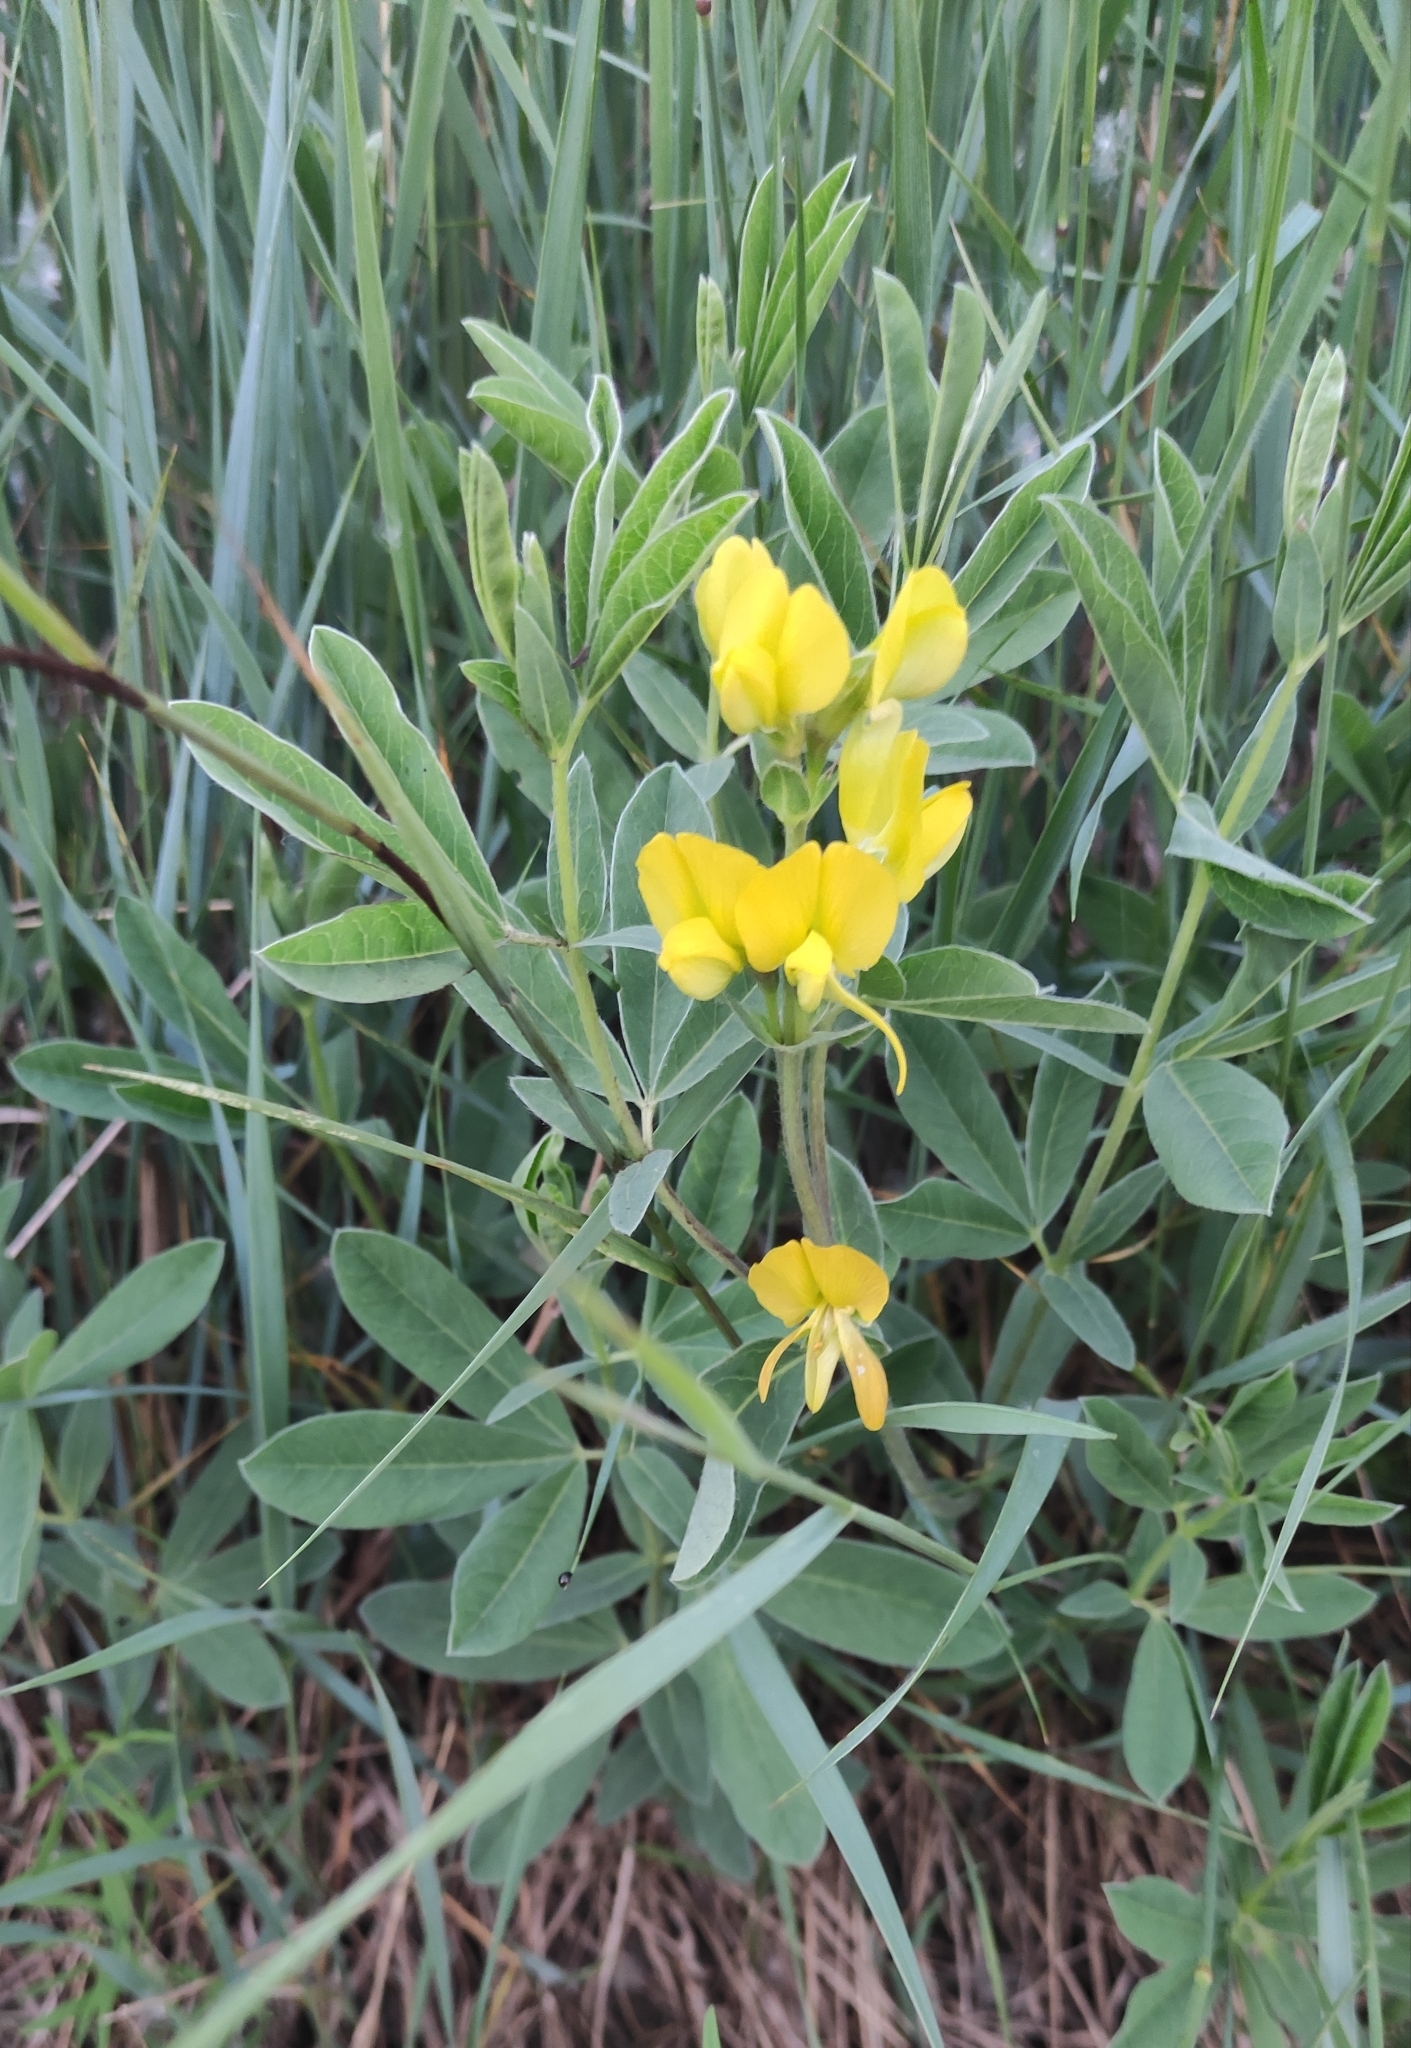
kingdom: Plantae
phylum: Tracheophyta
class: Magnoliopsida
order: Fabales
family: Fabaceae
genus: Thermopsis
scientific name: Thermopsis lanceolata
